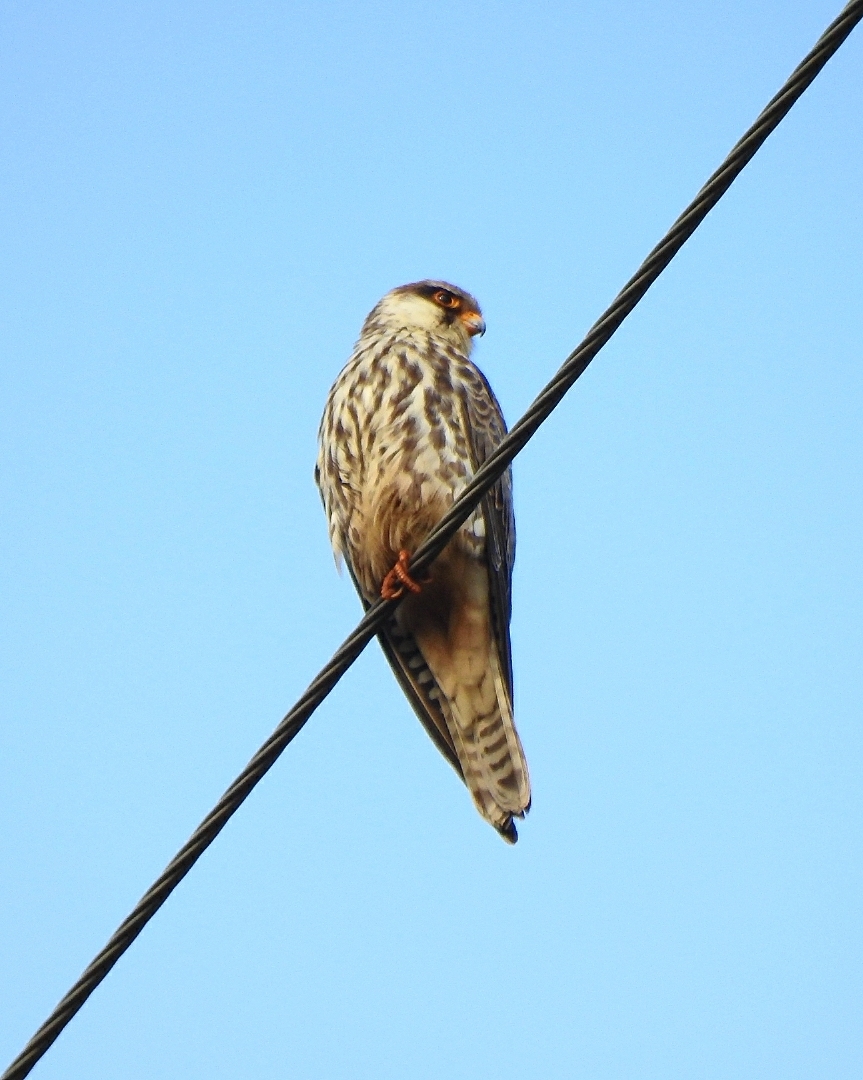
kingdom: Animalia
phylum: Chordata
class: Aves
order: Falconiformes
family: Falconidae
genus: Falco
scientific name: Falco amurensis
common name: Amur falcon
